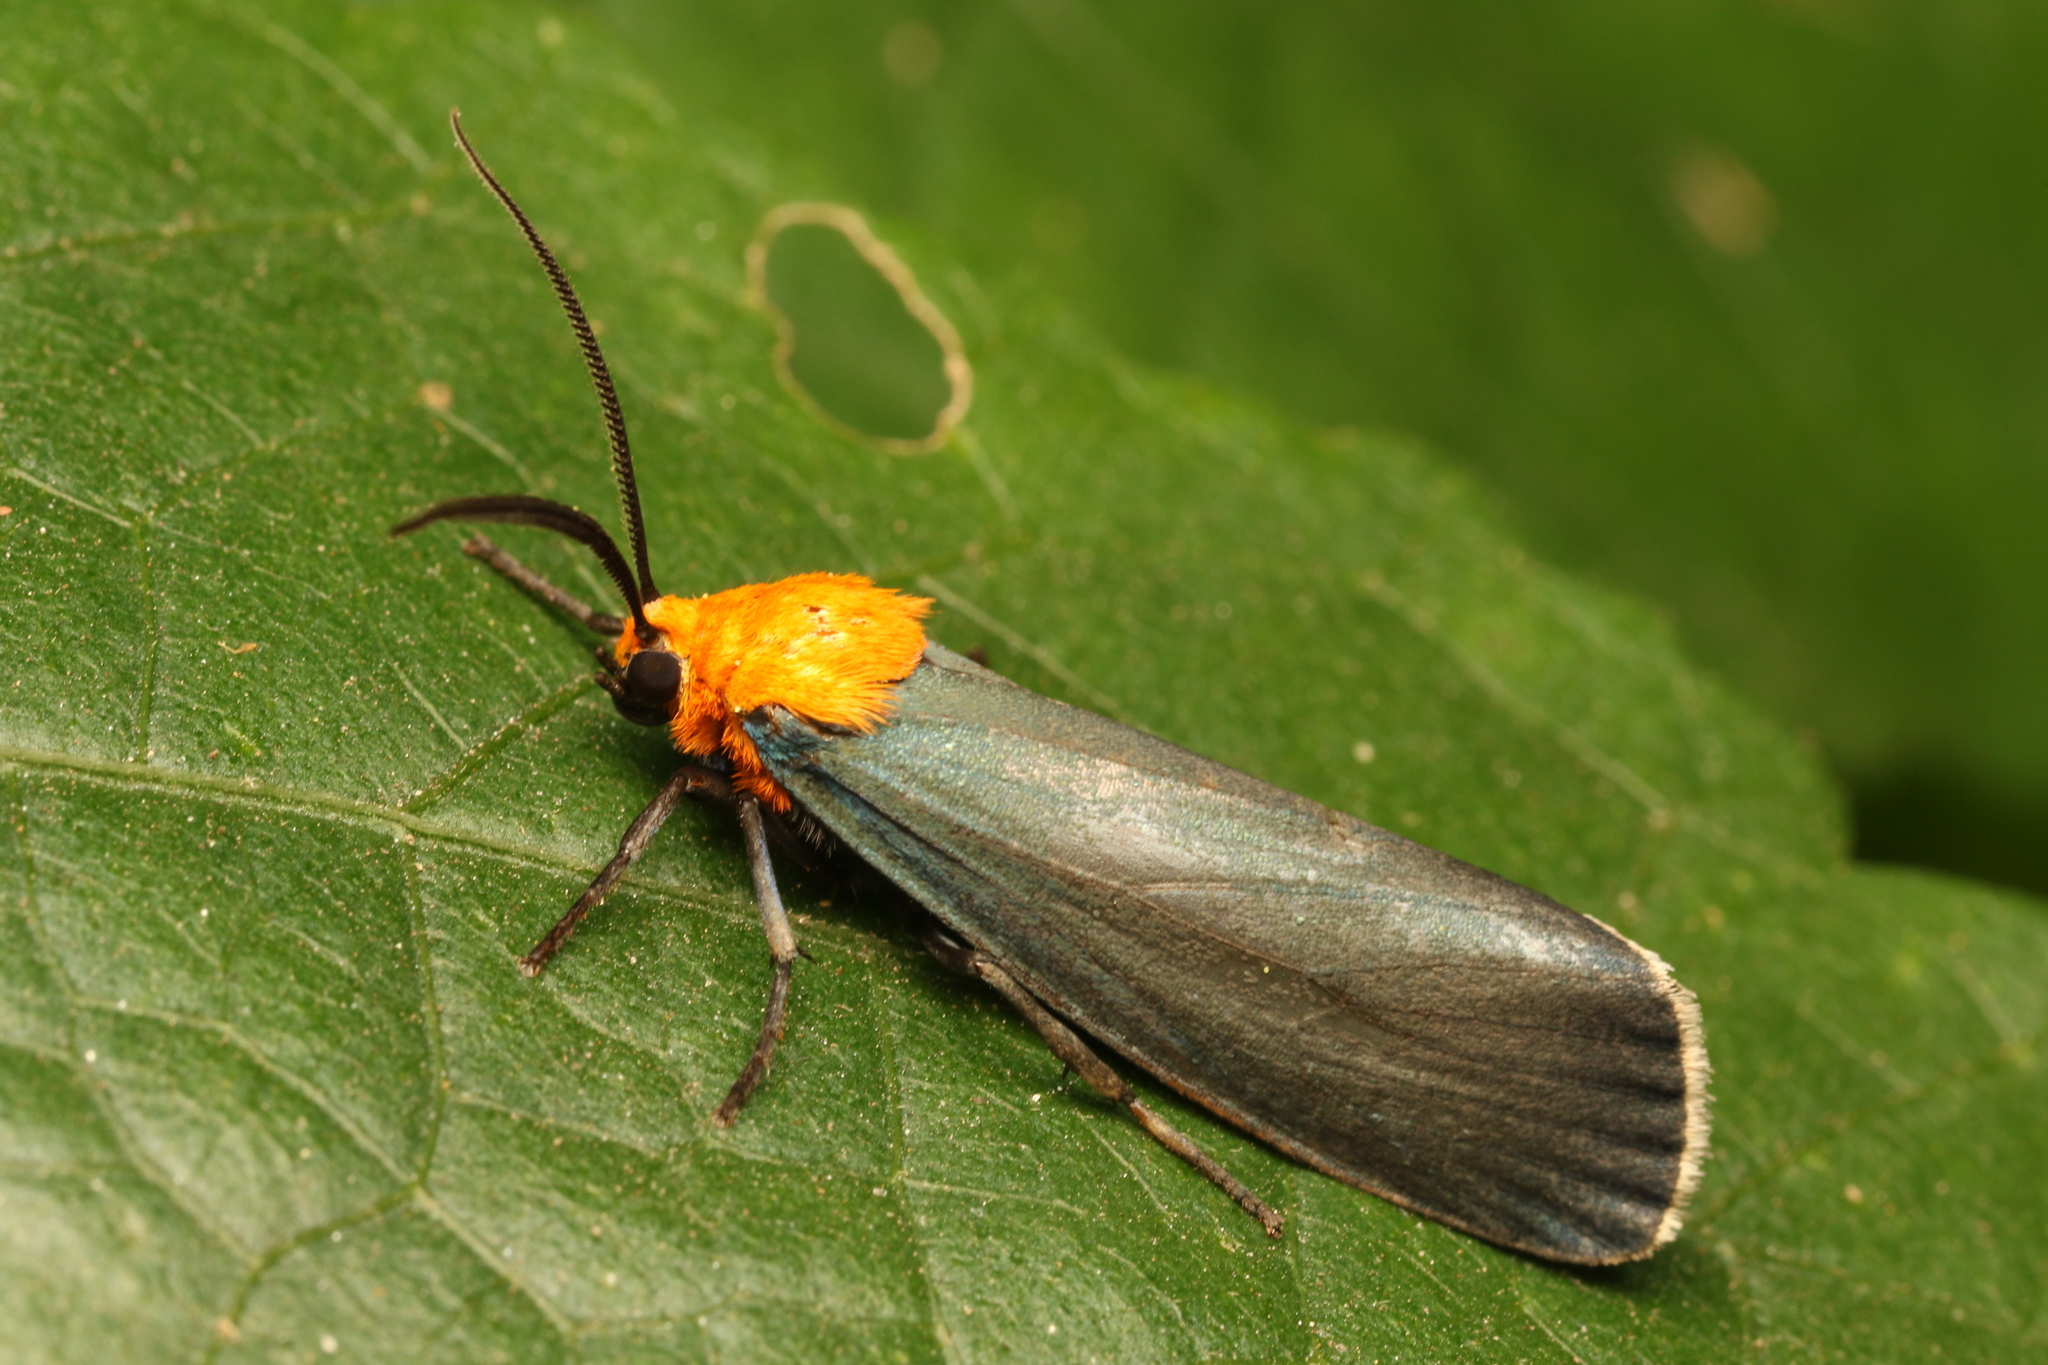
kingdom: Animalia
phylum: Arthropoda
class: Insecta
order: Lepidoptera
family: Erebidae
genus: Apistosia
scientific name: Apistosia judas
